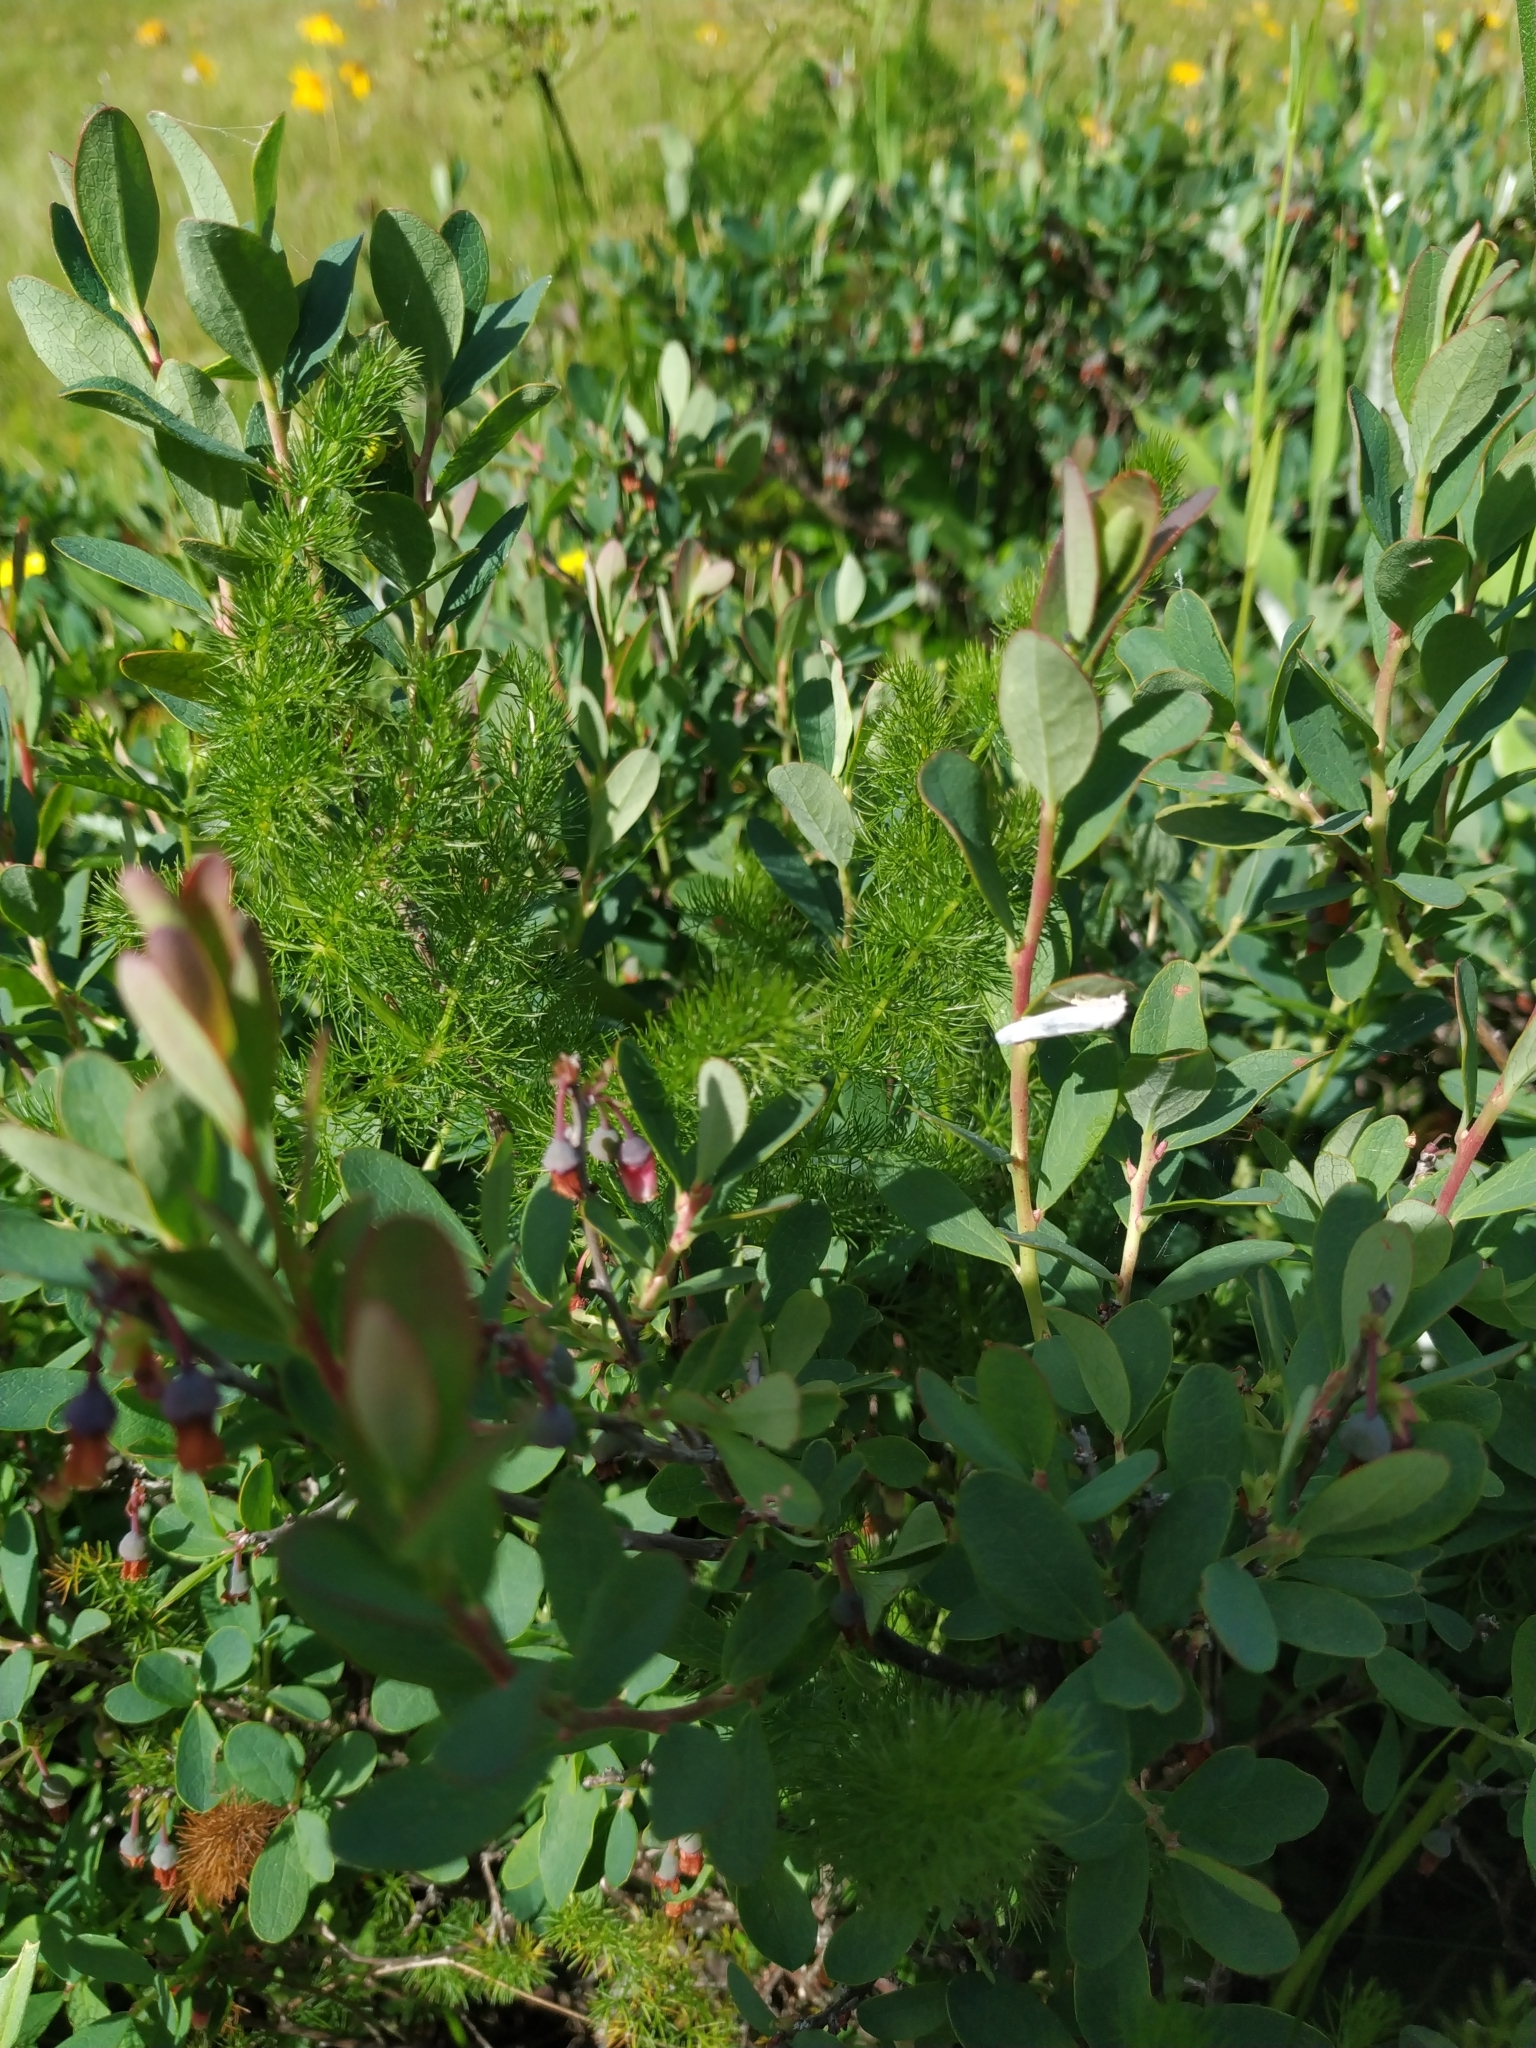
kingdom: Plantae
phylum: Tracheophyta
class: Magnoliopsida
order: Ericales
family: Ericaceae
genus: Vaccinium
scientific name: Vaccinium uliginosum
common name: Bog bilberry
